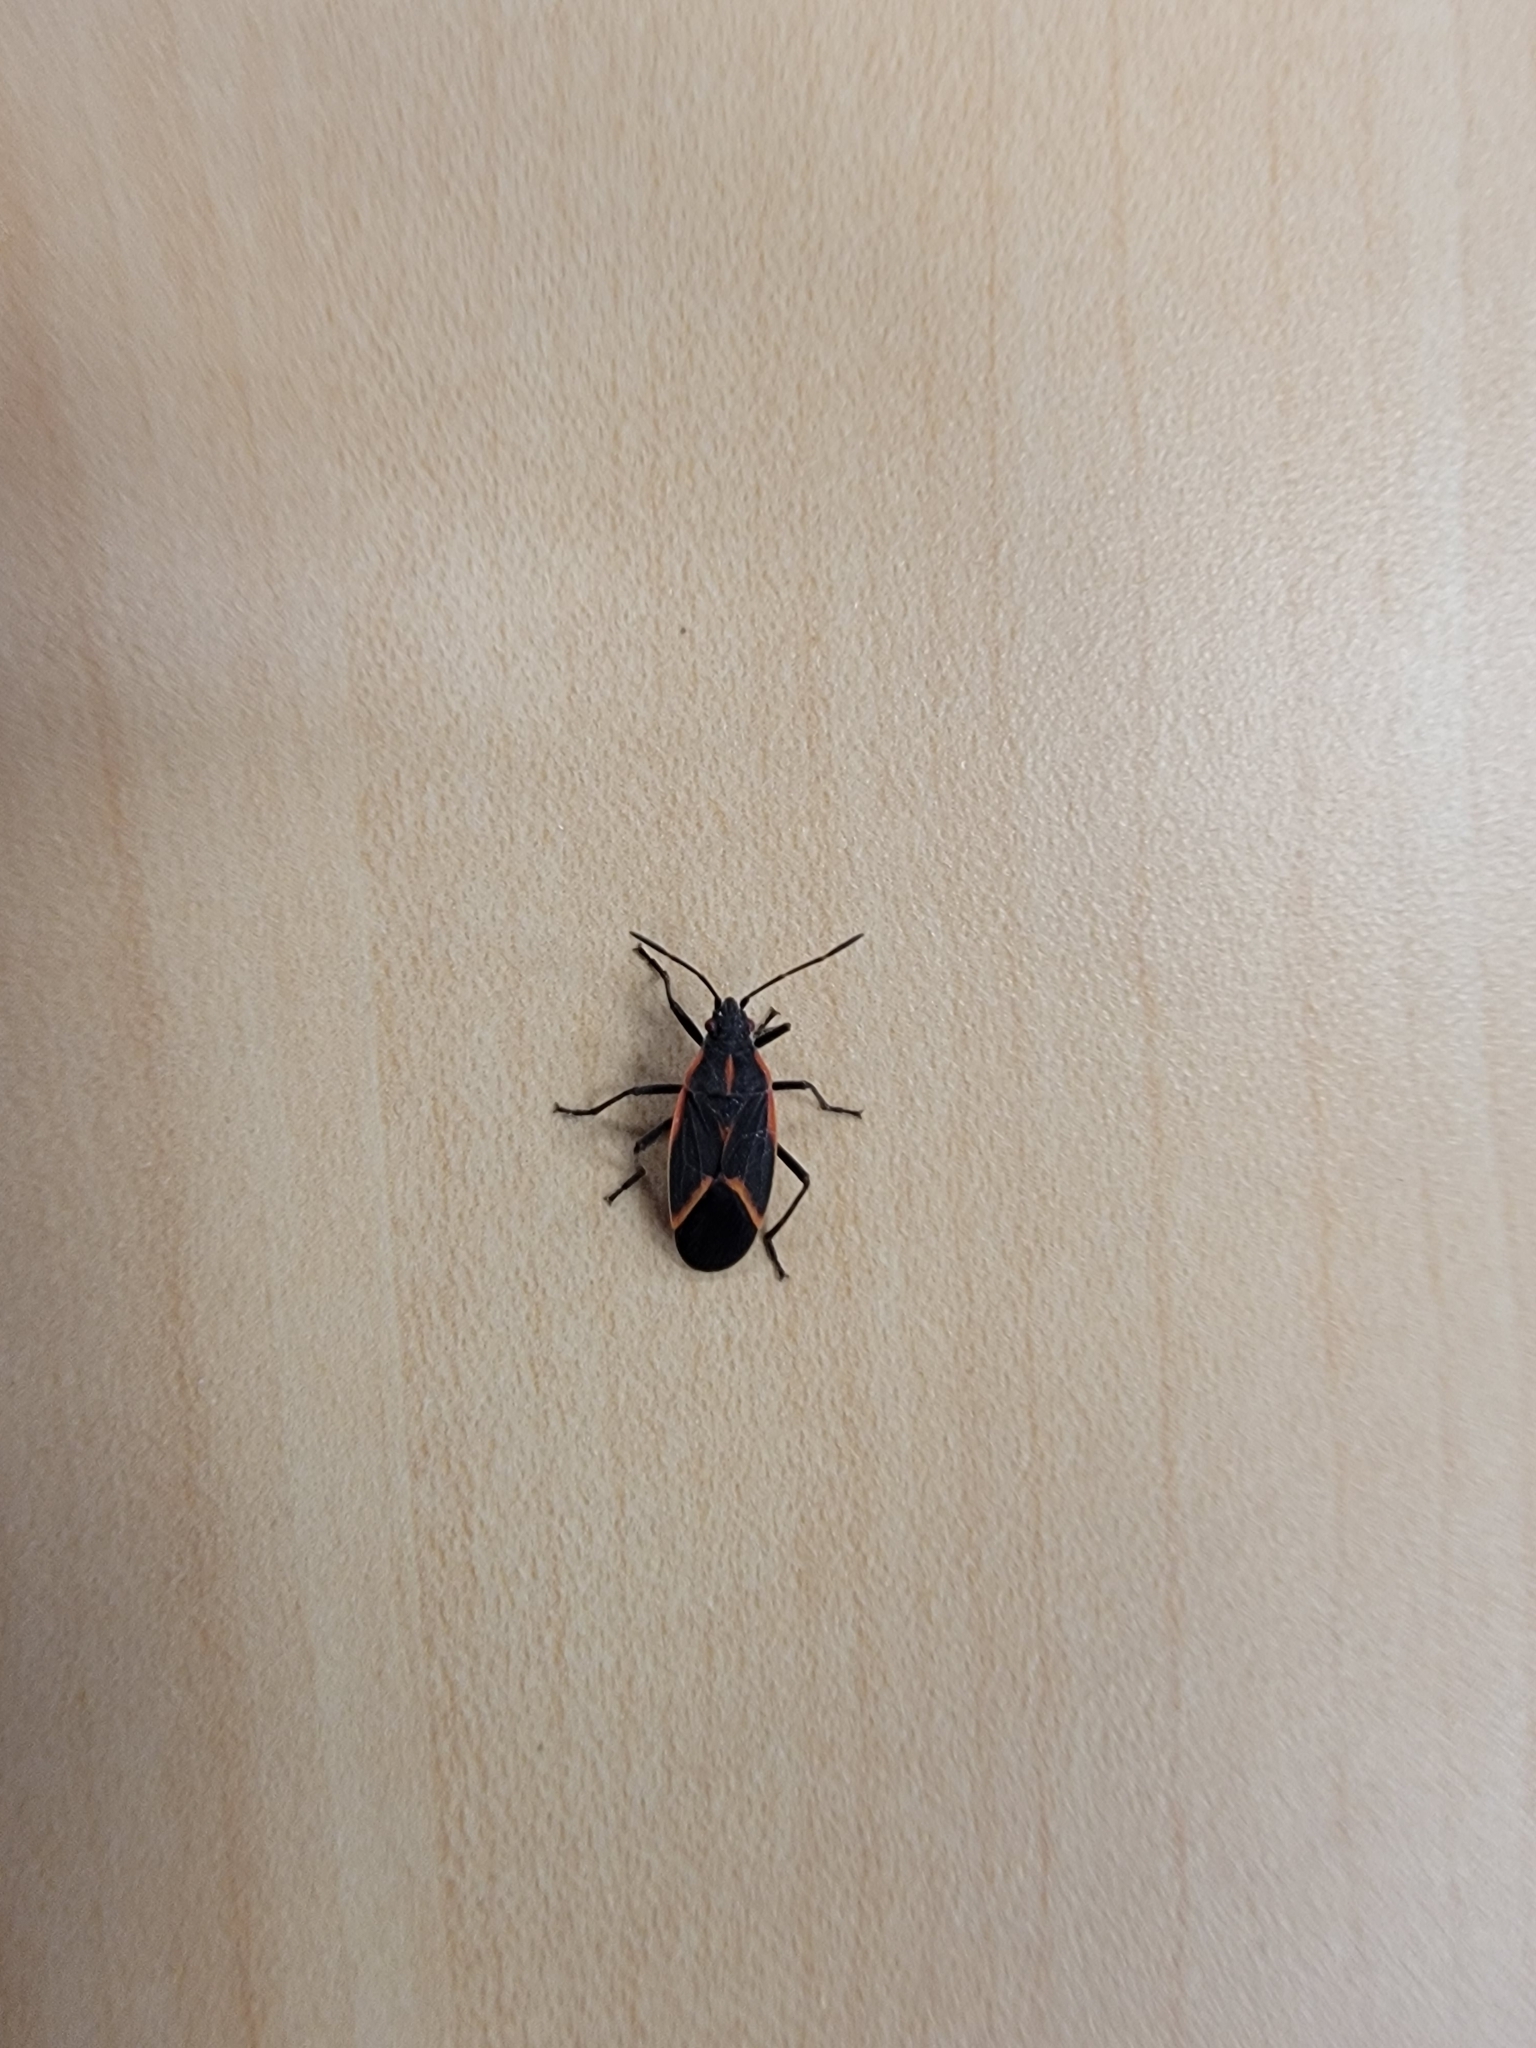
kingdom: Animalia
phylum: Arthropoda
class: Insecta
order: Hemiptera
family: Rhopalidae
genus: Boisea
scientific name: Boisea trivittata
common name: Boxelder bug
